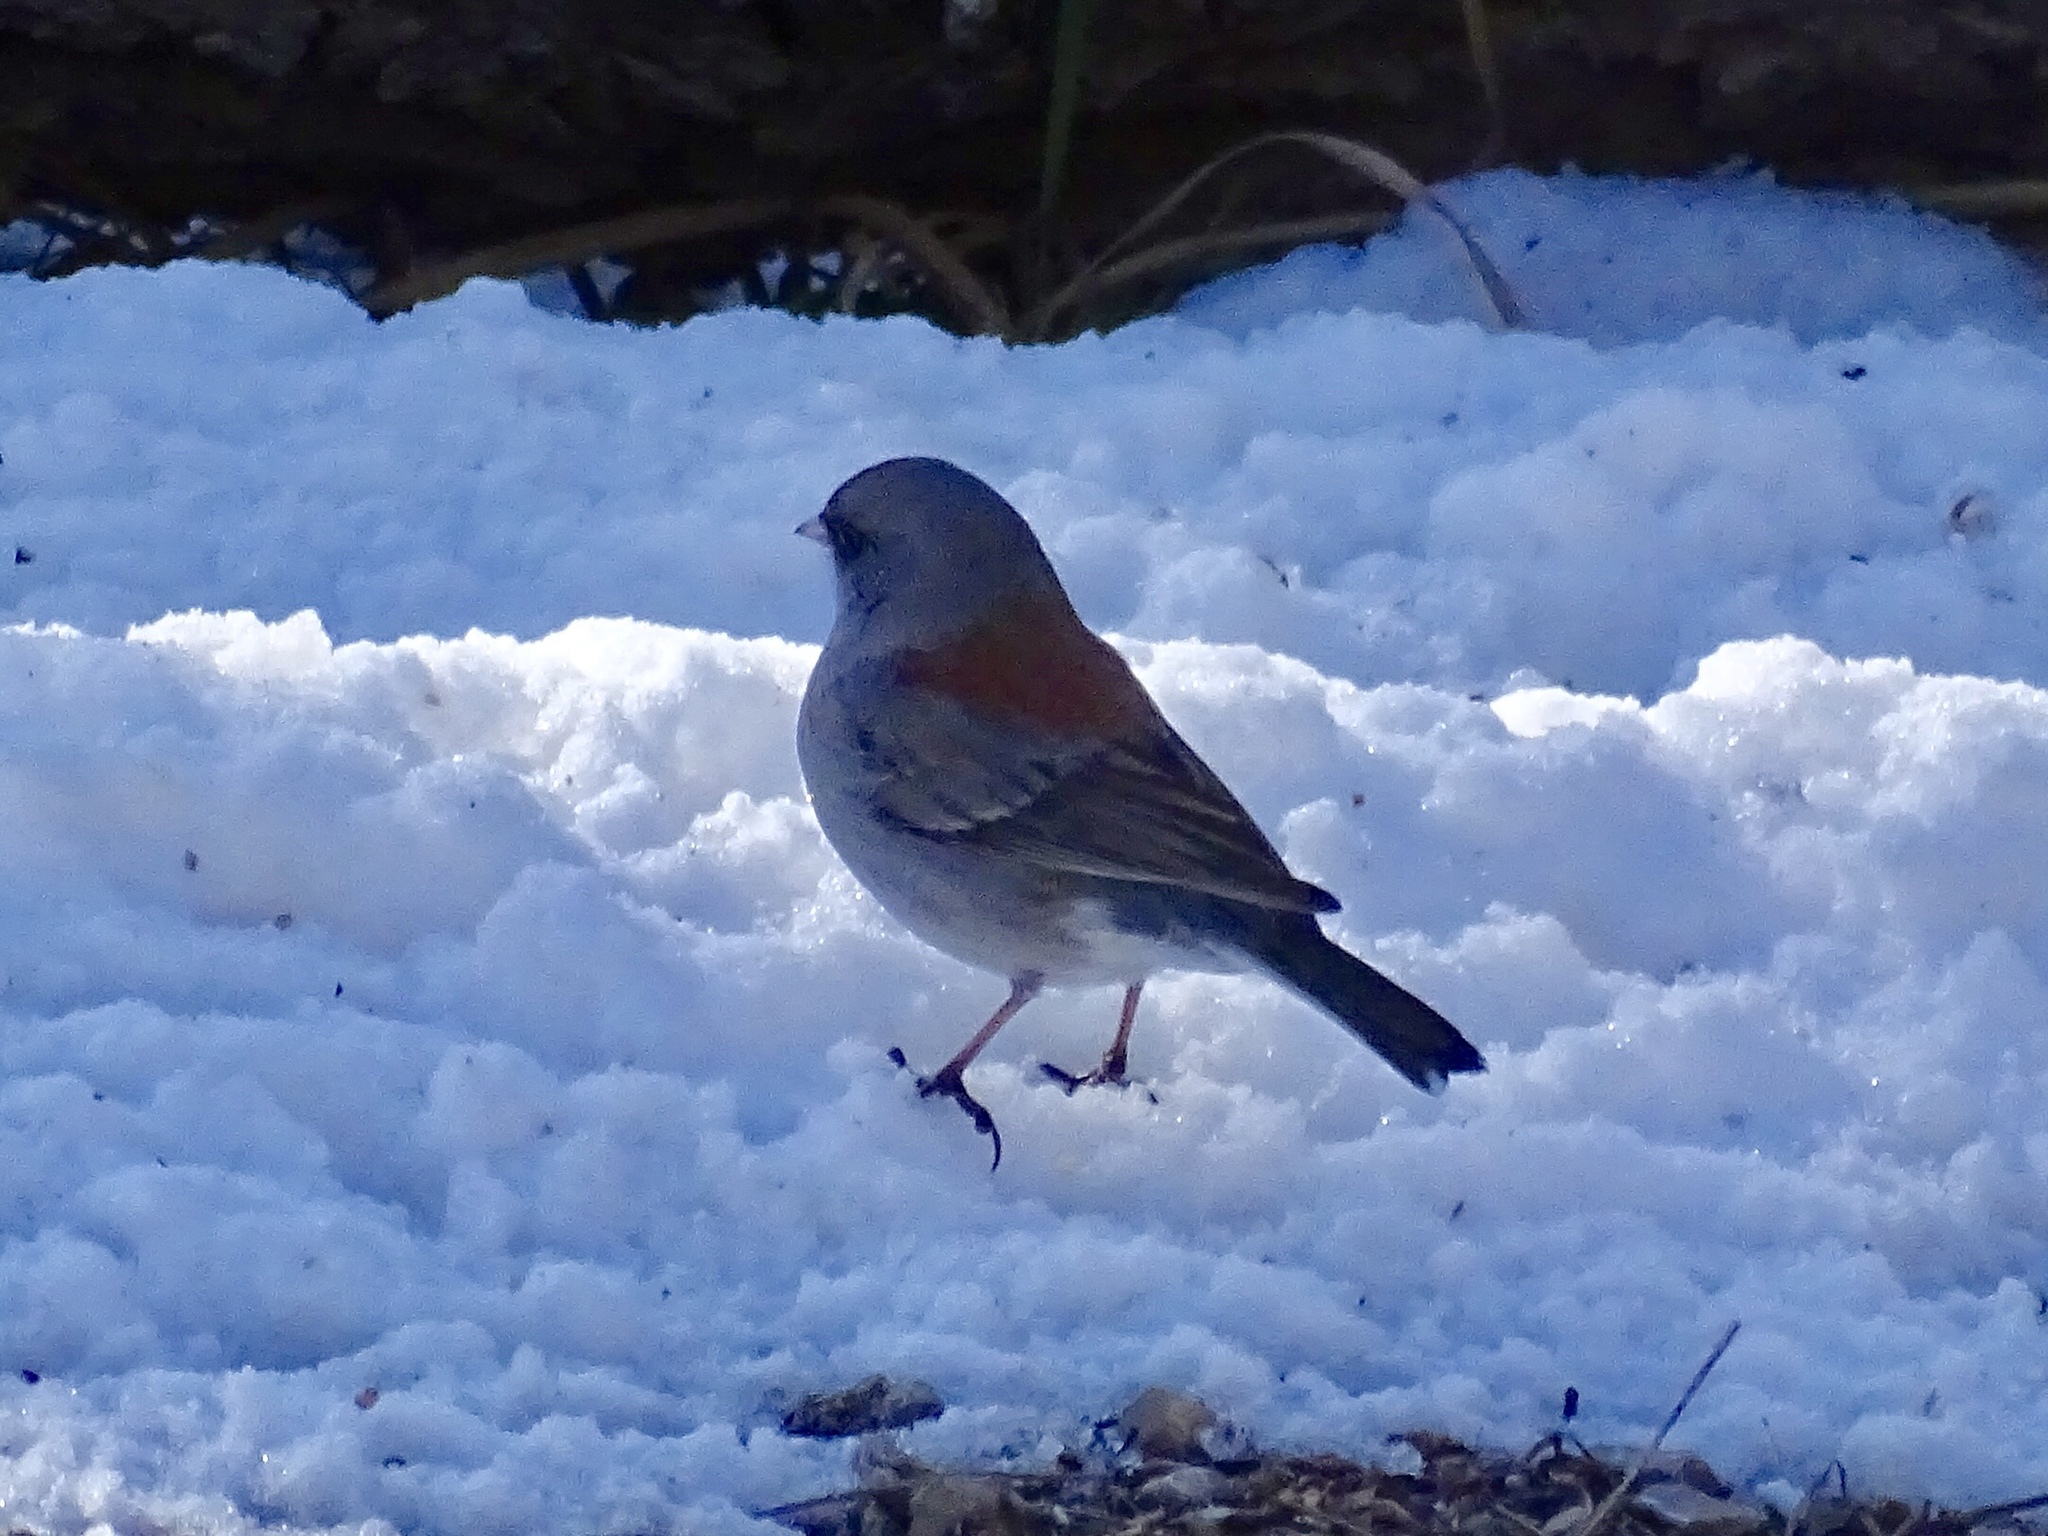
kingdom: Animalia
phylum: Chordata
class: Aves
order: Passeriformes
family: Passerellidae
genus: Junco
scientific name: Junco hyemalis
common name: Dark-eyed junco
